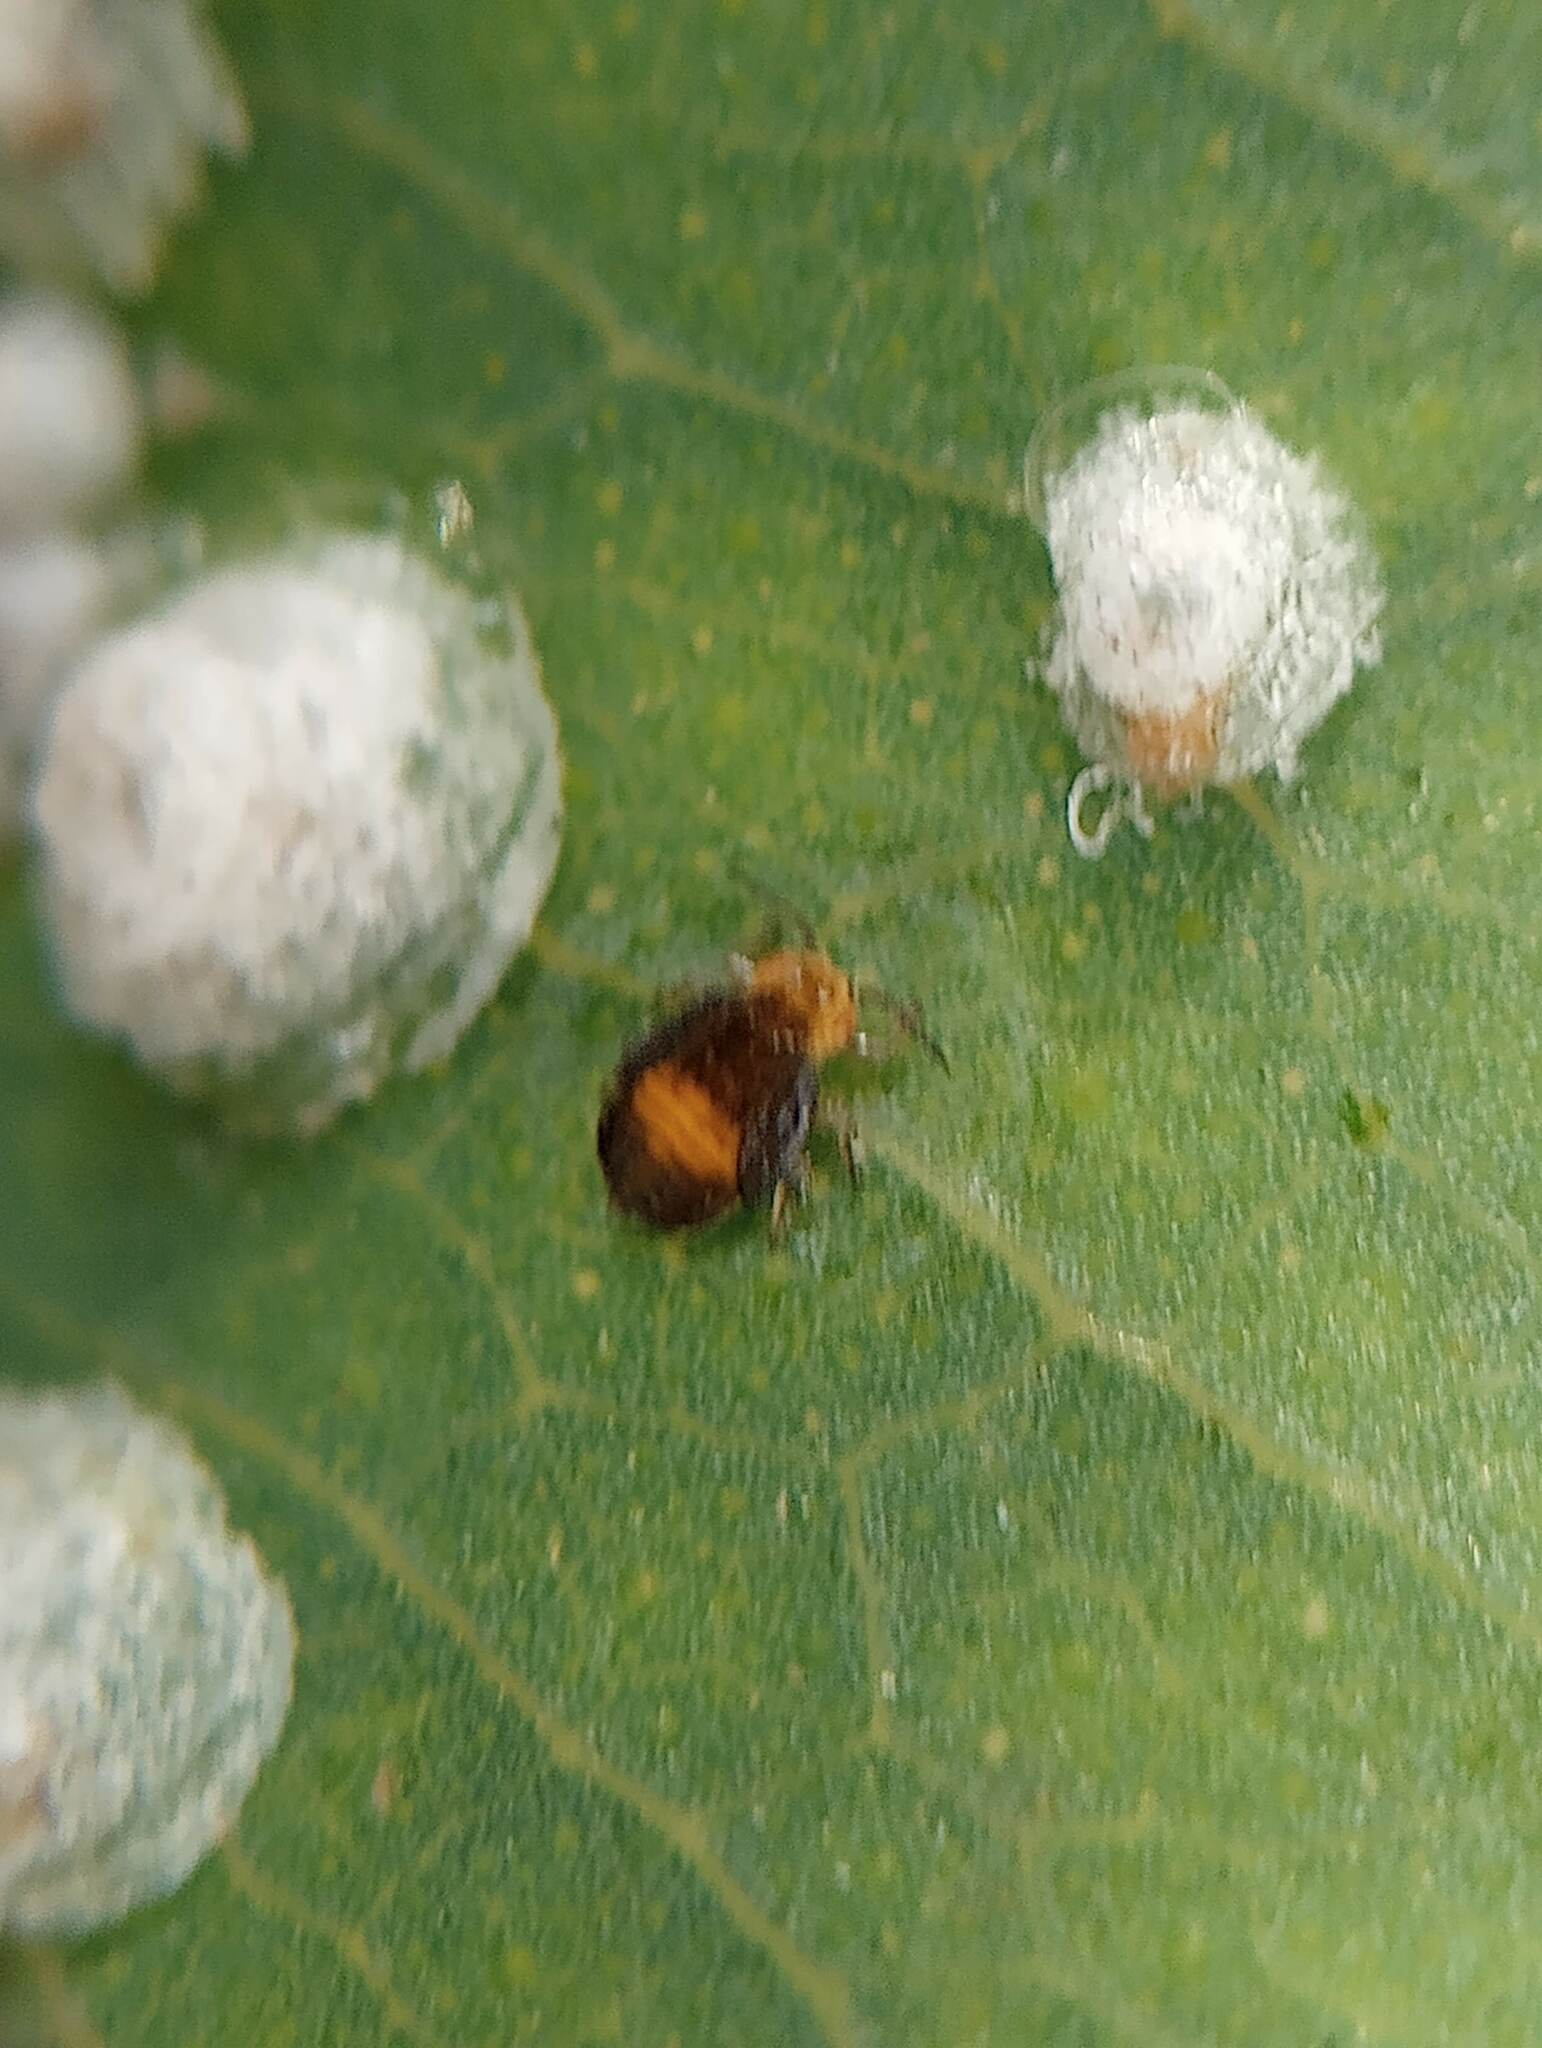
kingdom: Animalia
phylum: Arthropoda
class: Insecta
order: Hemiptera
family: Aphalaridae
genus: Glycaspis
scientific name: Glycaspis brimblecombei
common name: Red gum lerp psyllid
